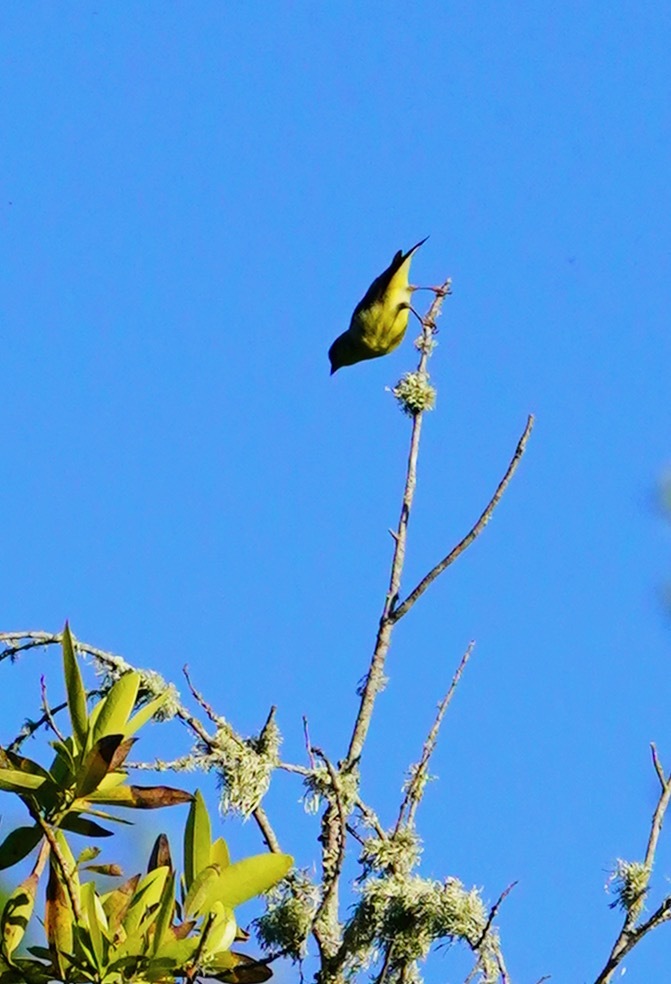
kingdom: Animalia
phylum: Chordata
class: Aves
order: Passeriformes
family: Fringillidae
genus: Spinus
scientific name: Spinus psaltria
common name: Lesser goldfinch
